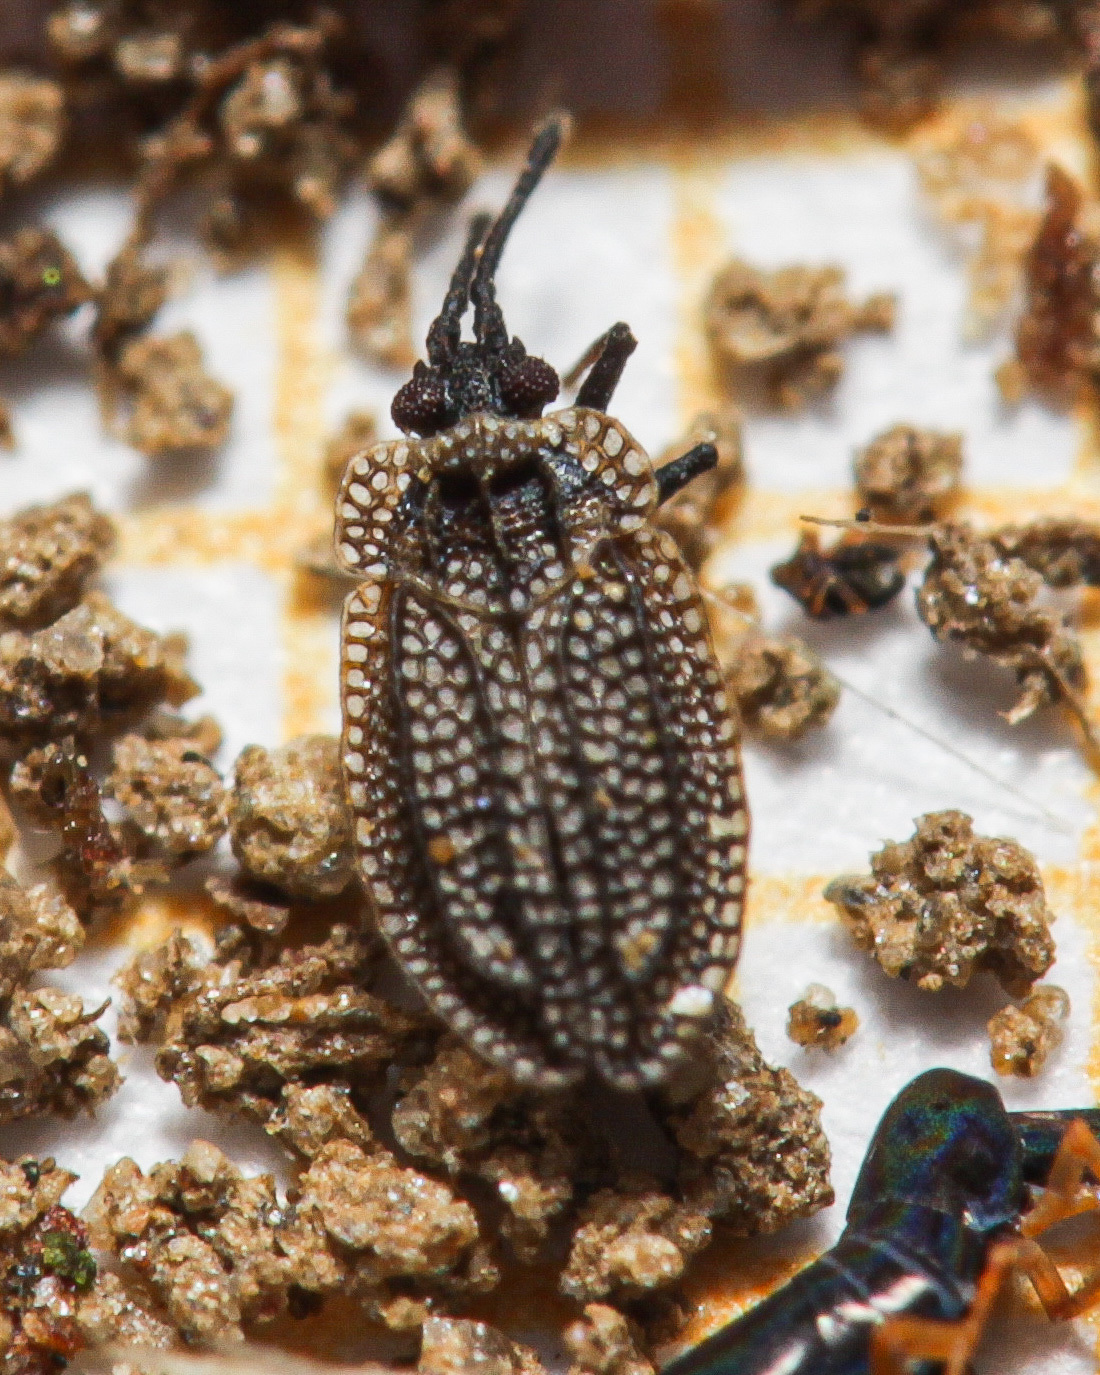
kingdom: Animalia
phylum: Arthropoda
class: Insecta
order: Hemiptera
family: Tingidae
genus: Acalypta
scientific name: Acalypta carinata
